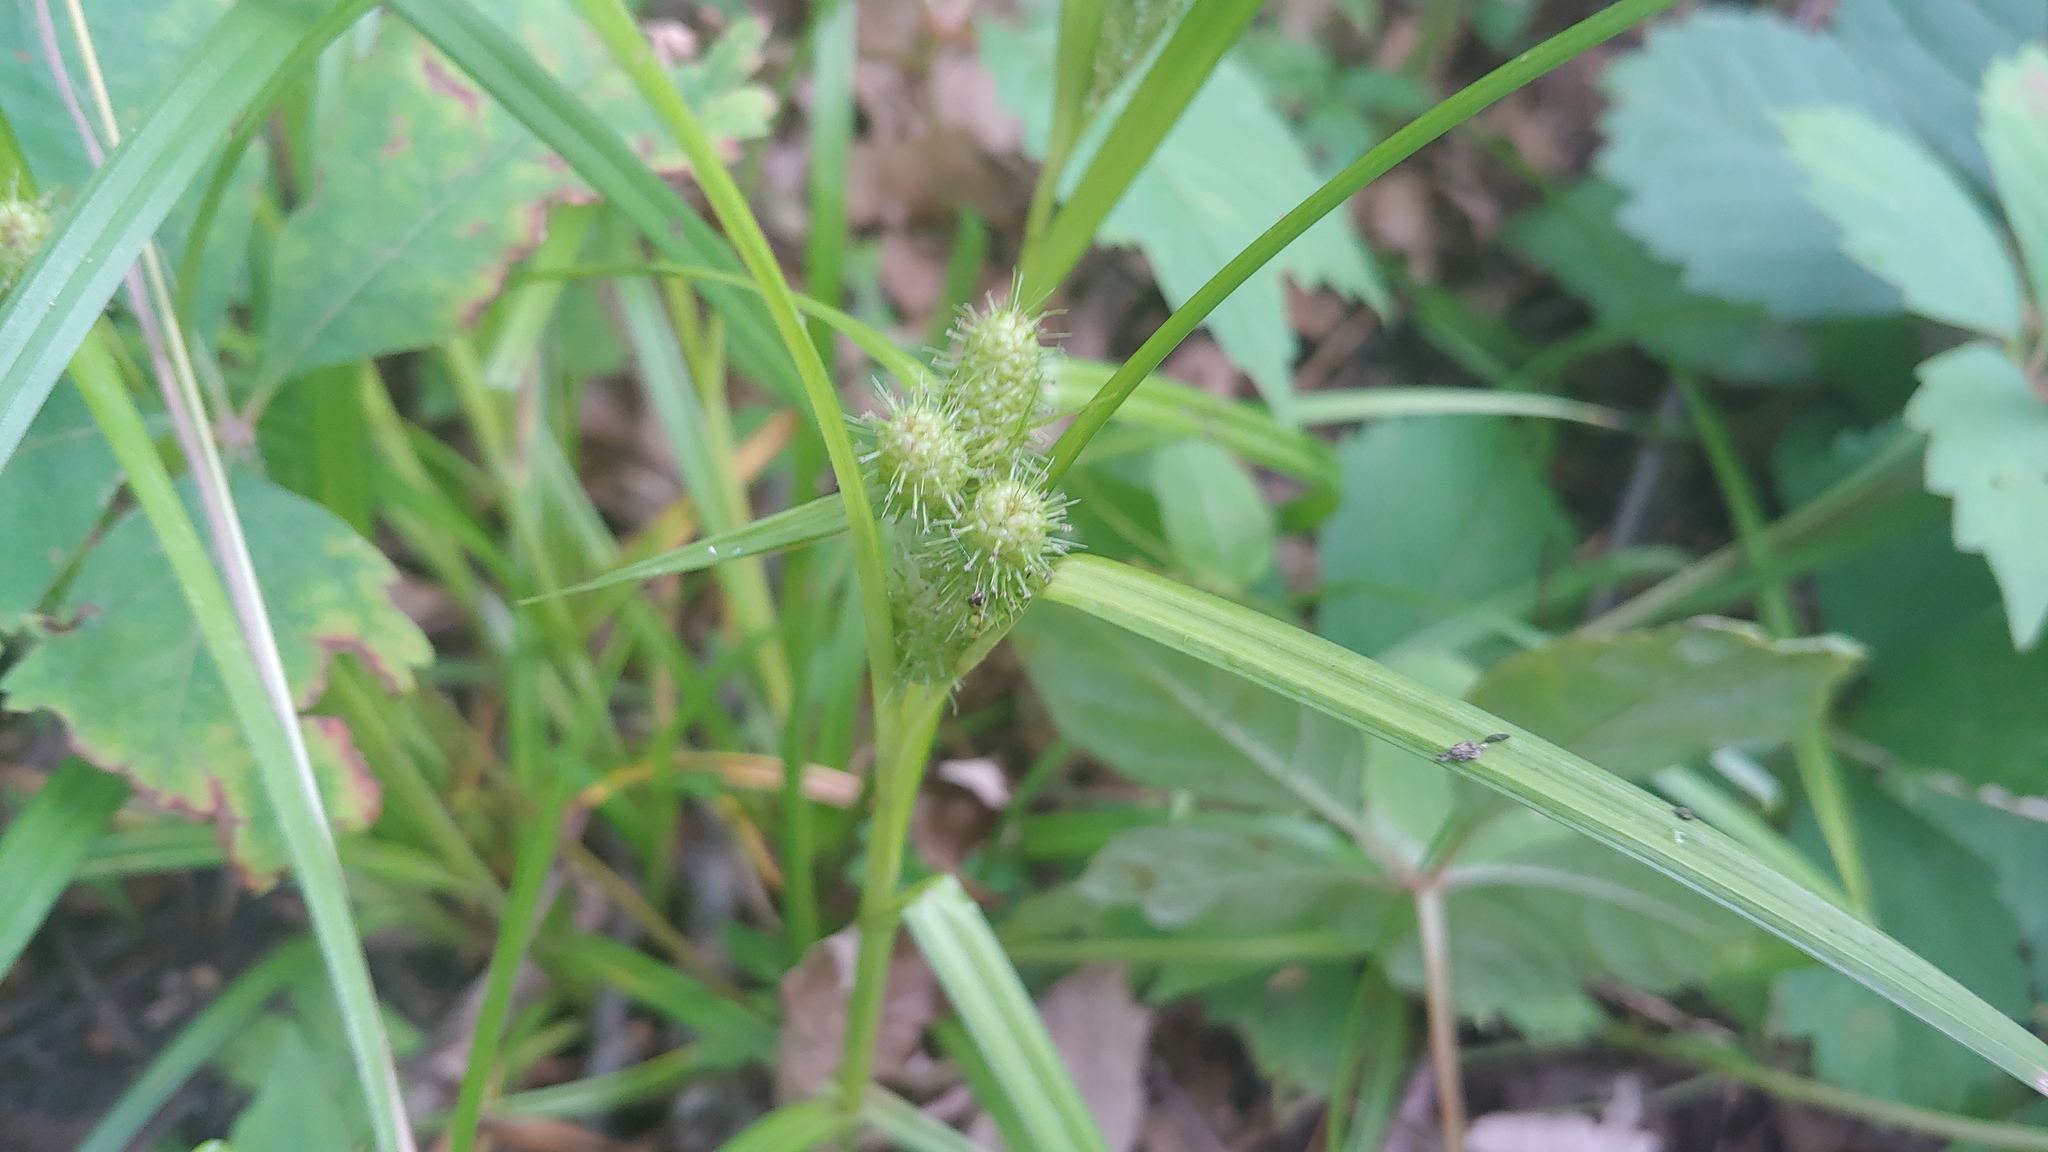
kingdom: Plantae
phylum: Tracheophyta
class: Liliopsida
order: Poales
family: Cyperaceae
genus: Carex
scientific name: Carex frankii
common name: Frank's sedge
